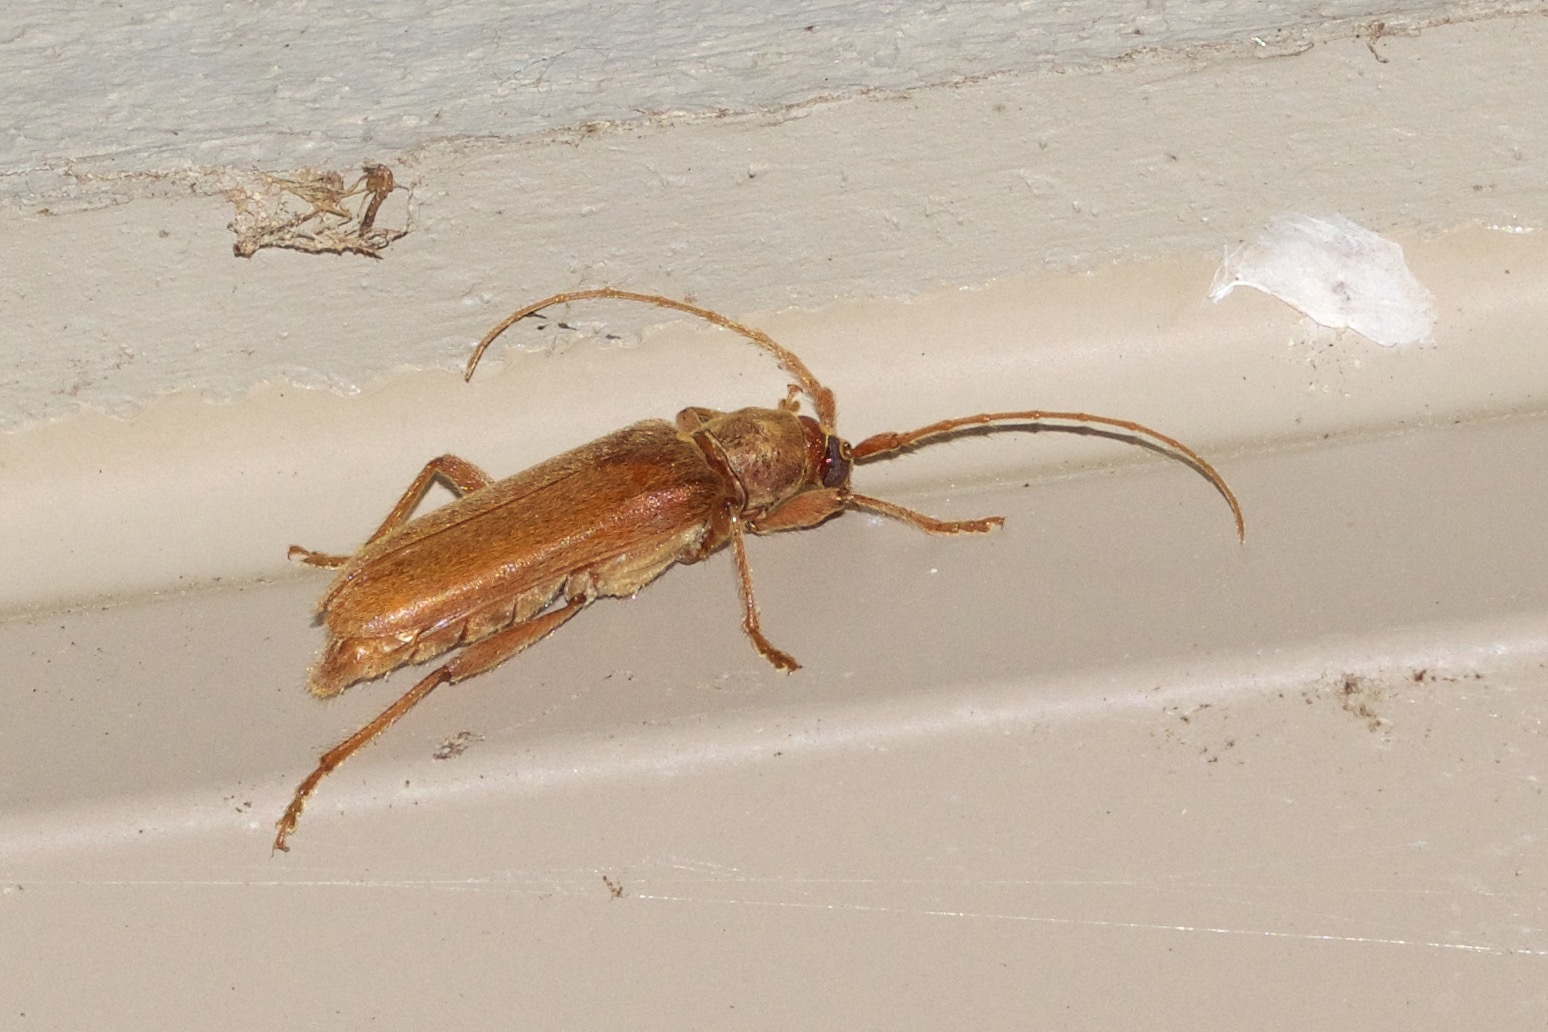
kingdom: Animalia
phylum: Arthropoda
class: Insecta
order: Coleoptera
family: Cerambycidae
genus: Hesperophanes
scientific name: Hesperophanes pubescens
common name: Longhorned wood-boring beetle
